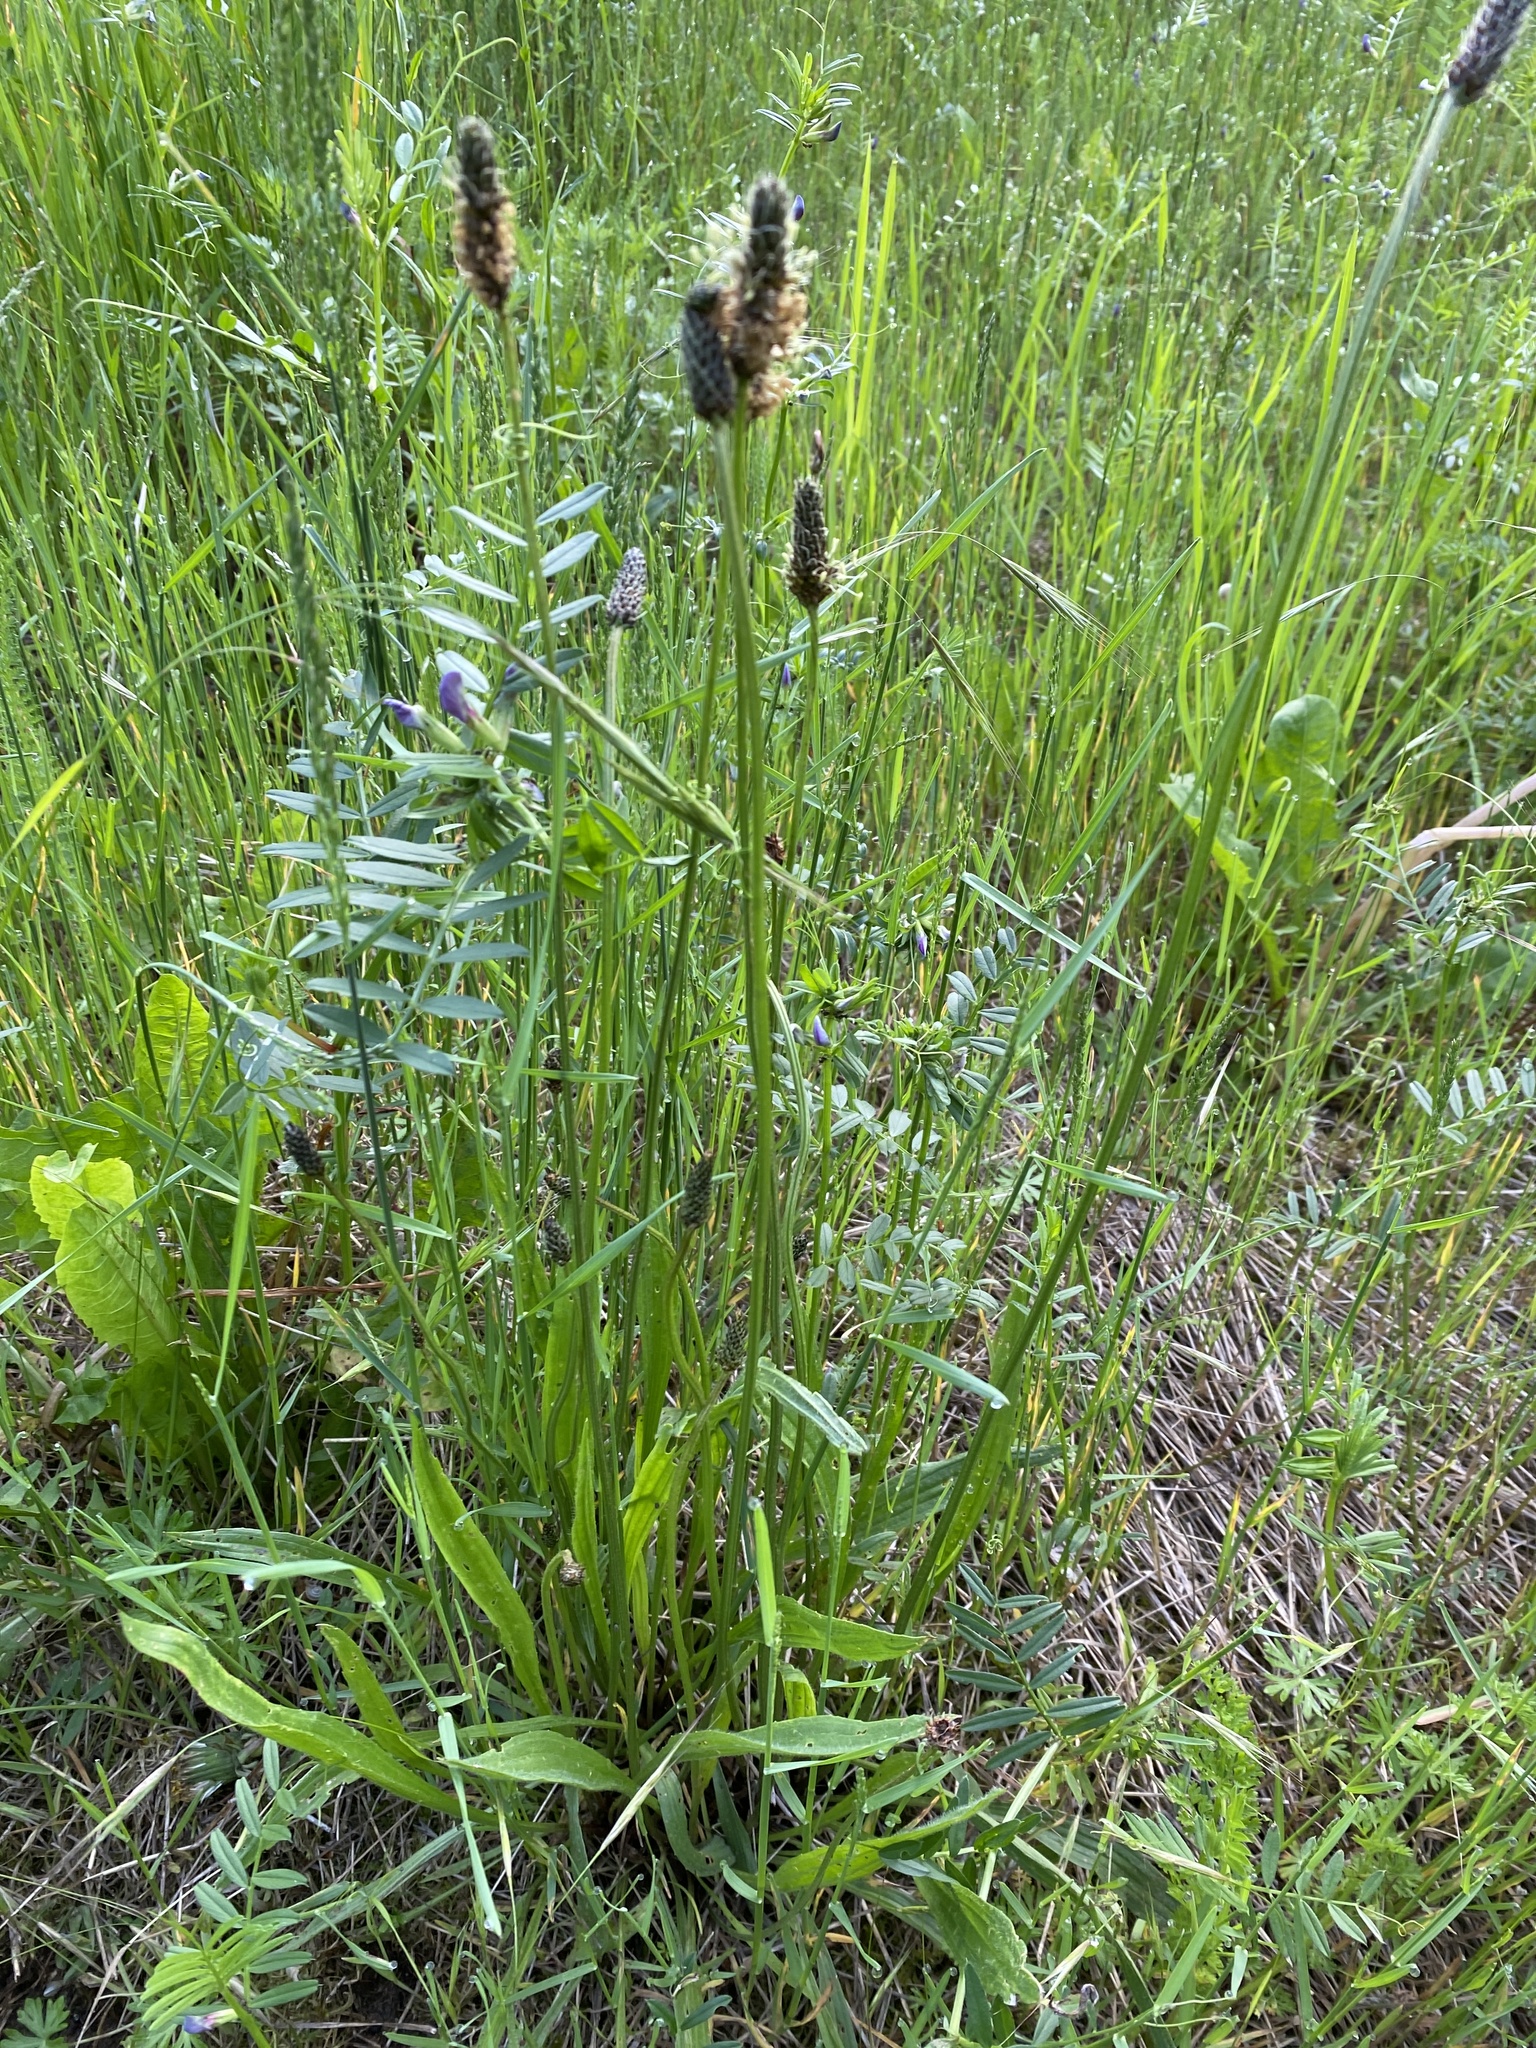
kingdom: Plantae
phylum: Tracheophyta
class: Magnoliopsida
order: Lamiales
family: Plantaginaceae
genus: Plantago
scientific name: Plantago lanceolata
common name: Ribwort plantain
